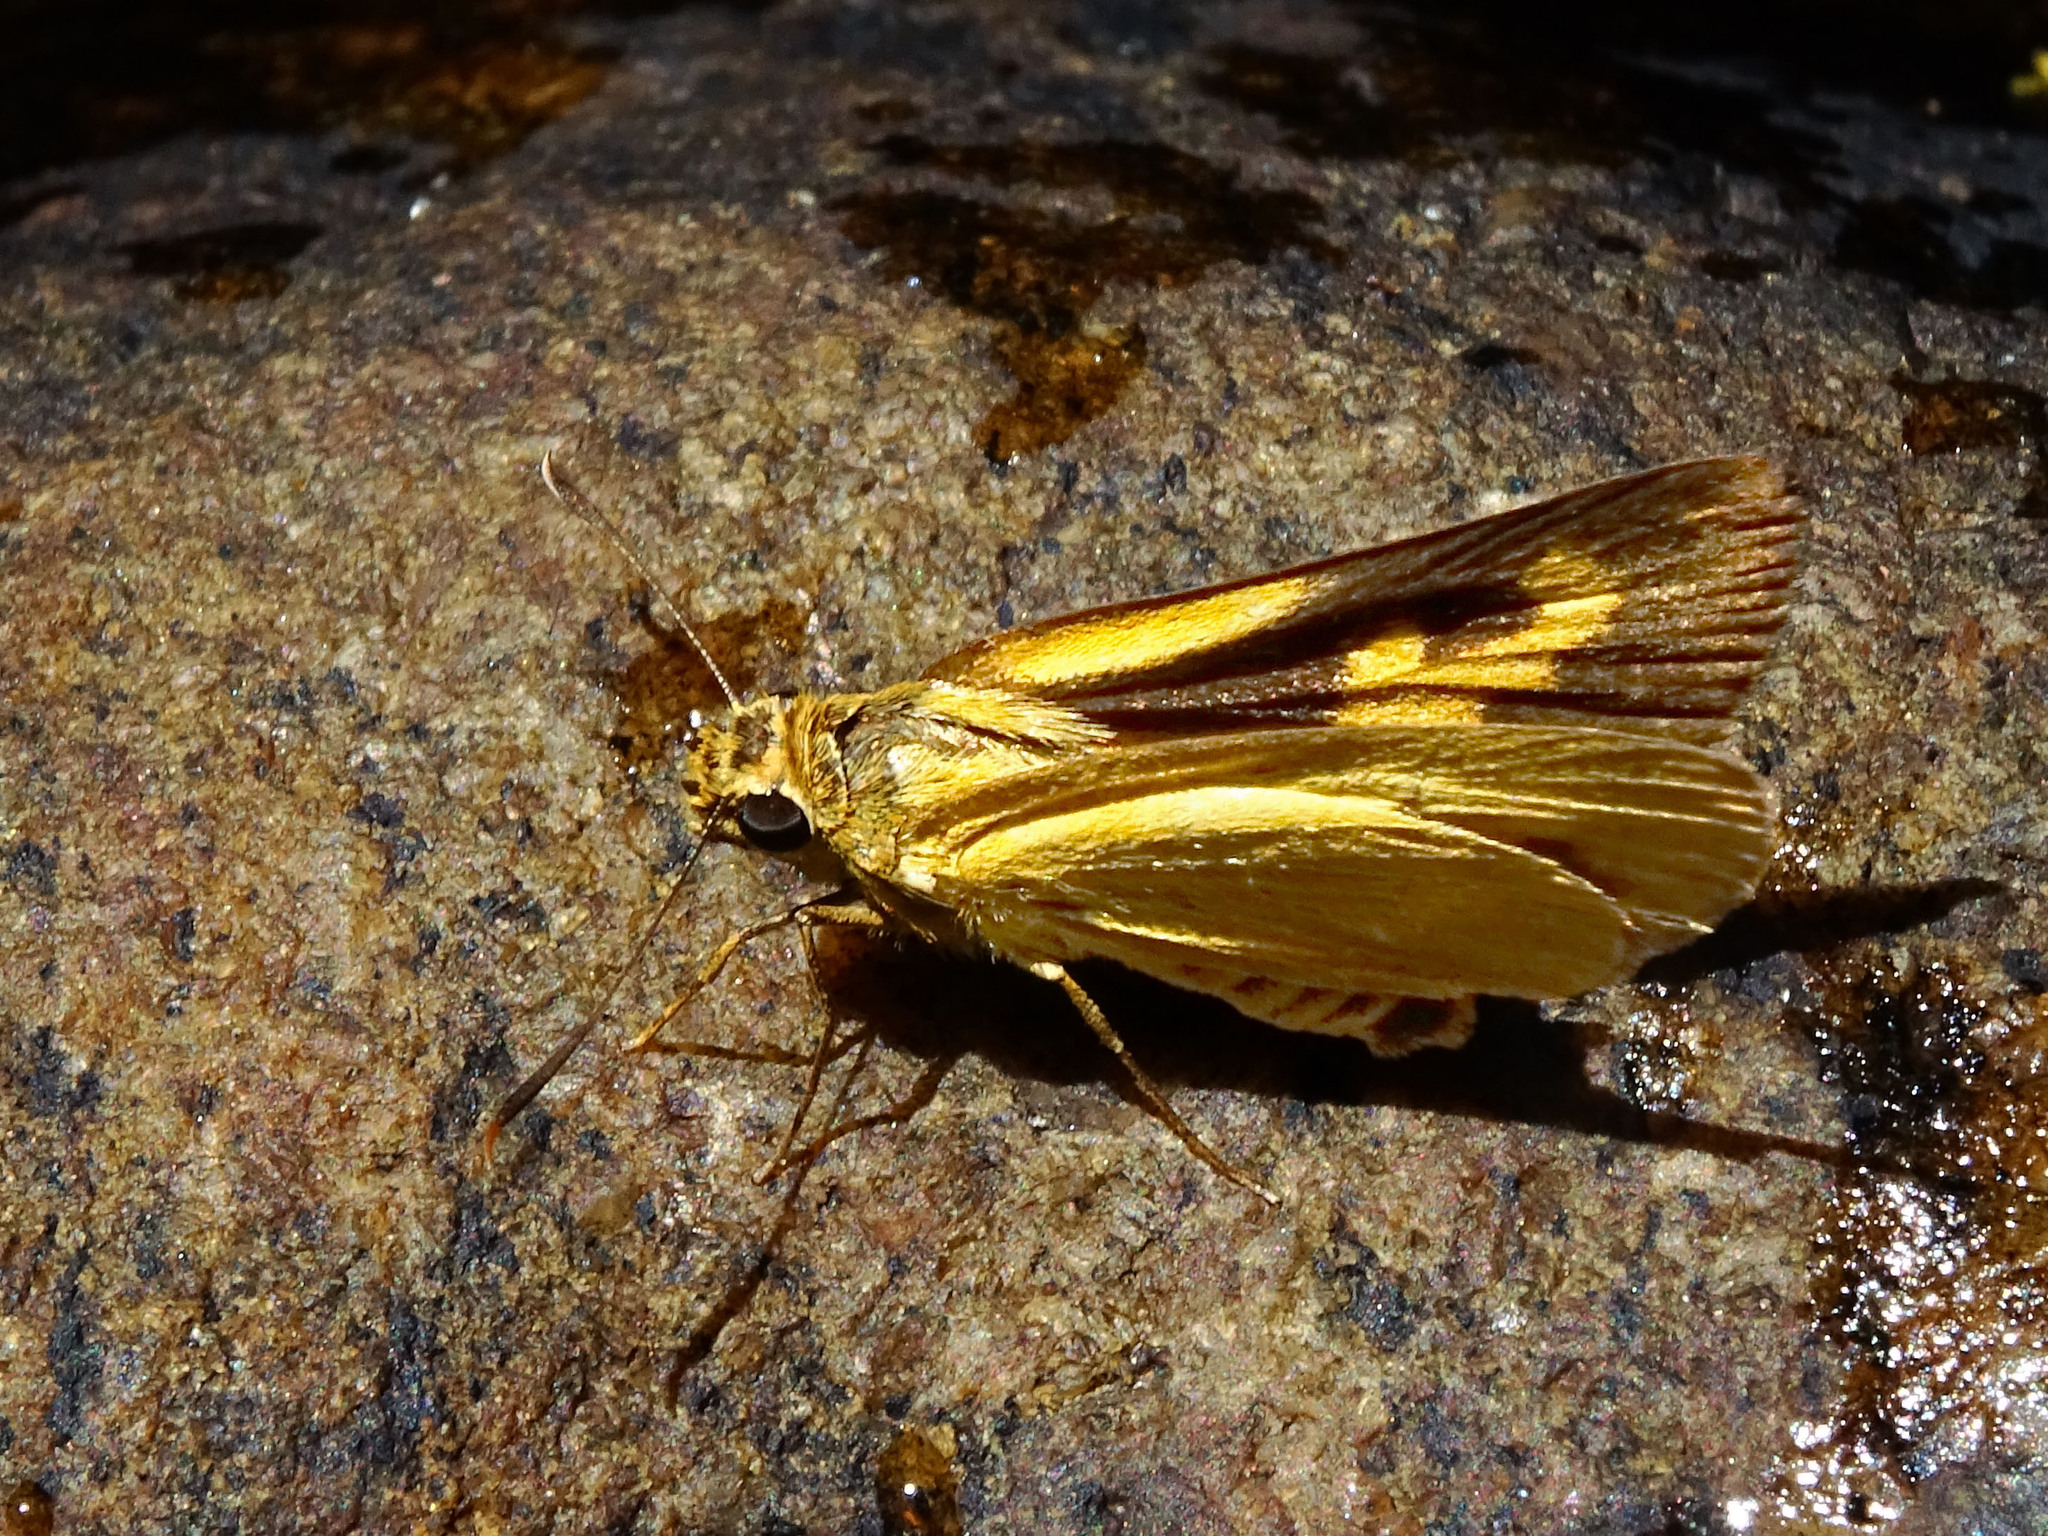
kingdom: Animalia
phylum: Arthropoda
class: Insecta
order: Lepidoptera
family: Hesperiidae
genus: Cupitha
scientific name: Cupitha purreea
